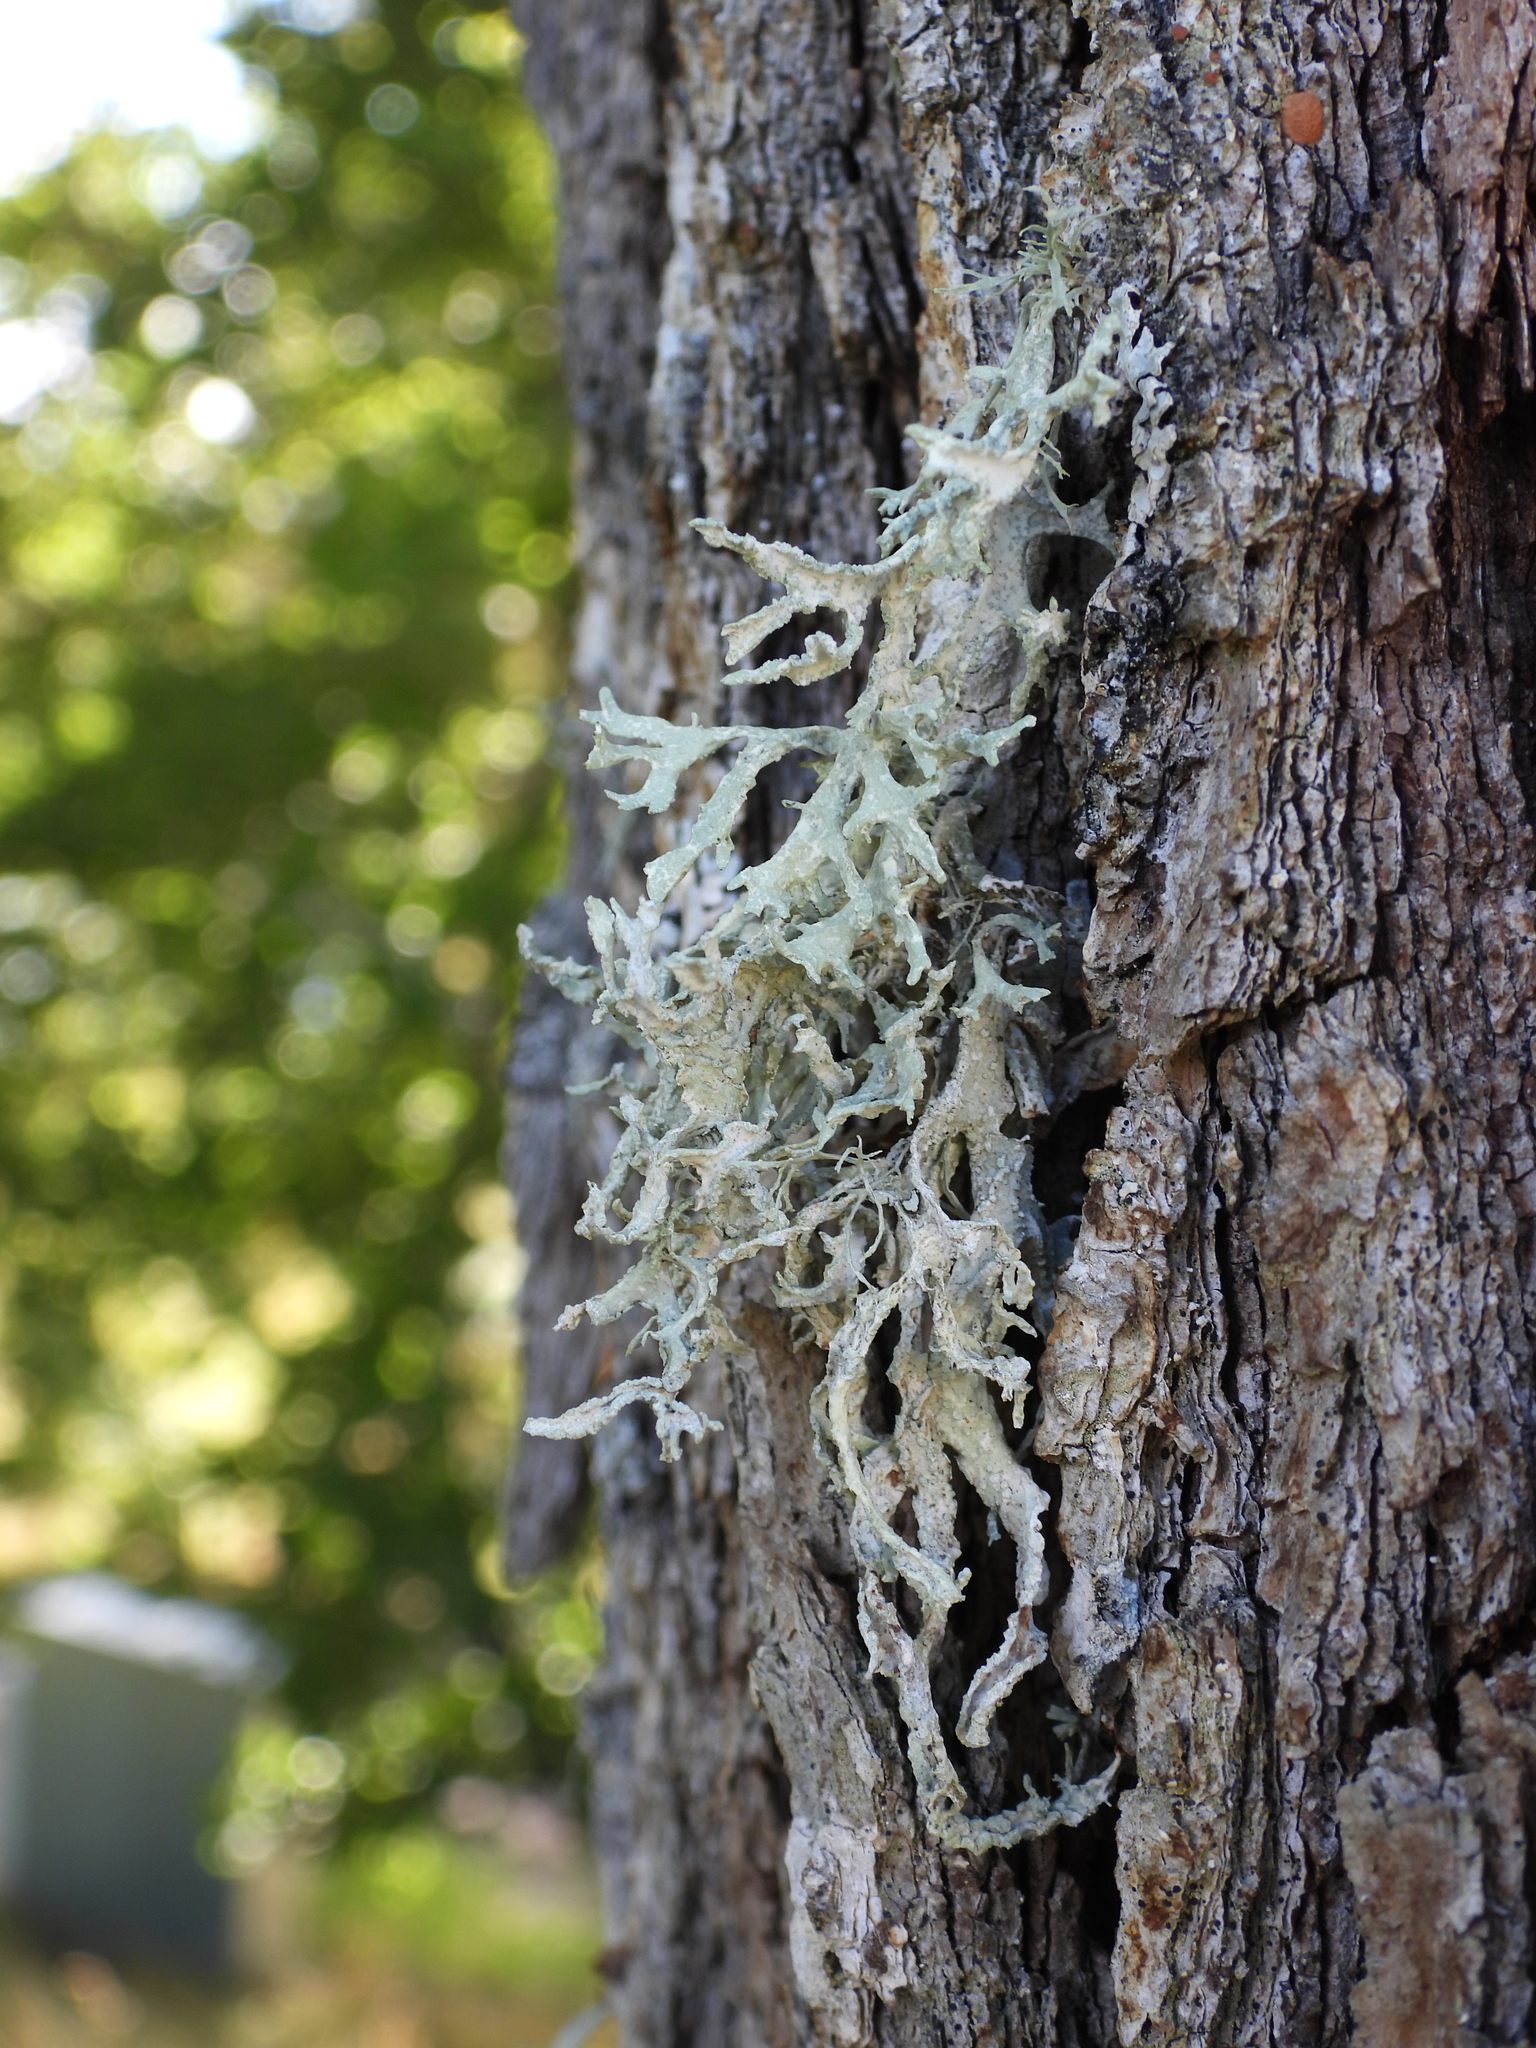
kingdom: Fungi
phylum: Ascomycota
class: Lecanoromycetes
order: Lecanorales
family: Parmeliaceae
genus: Evernia
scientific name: Evernia prunastri
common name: Oak moss
